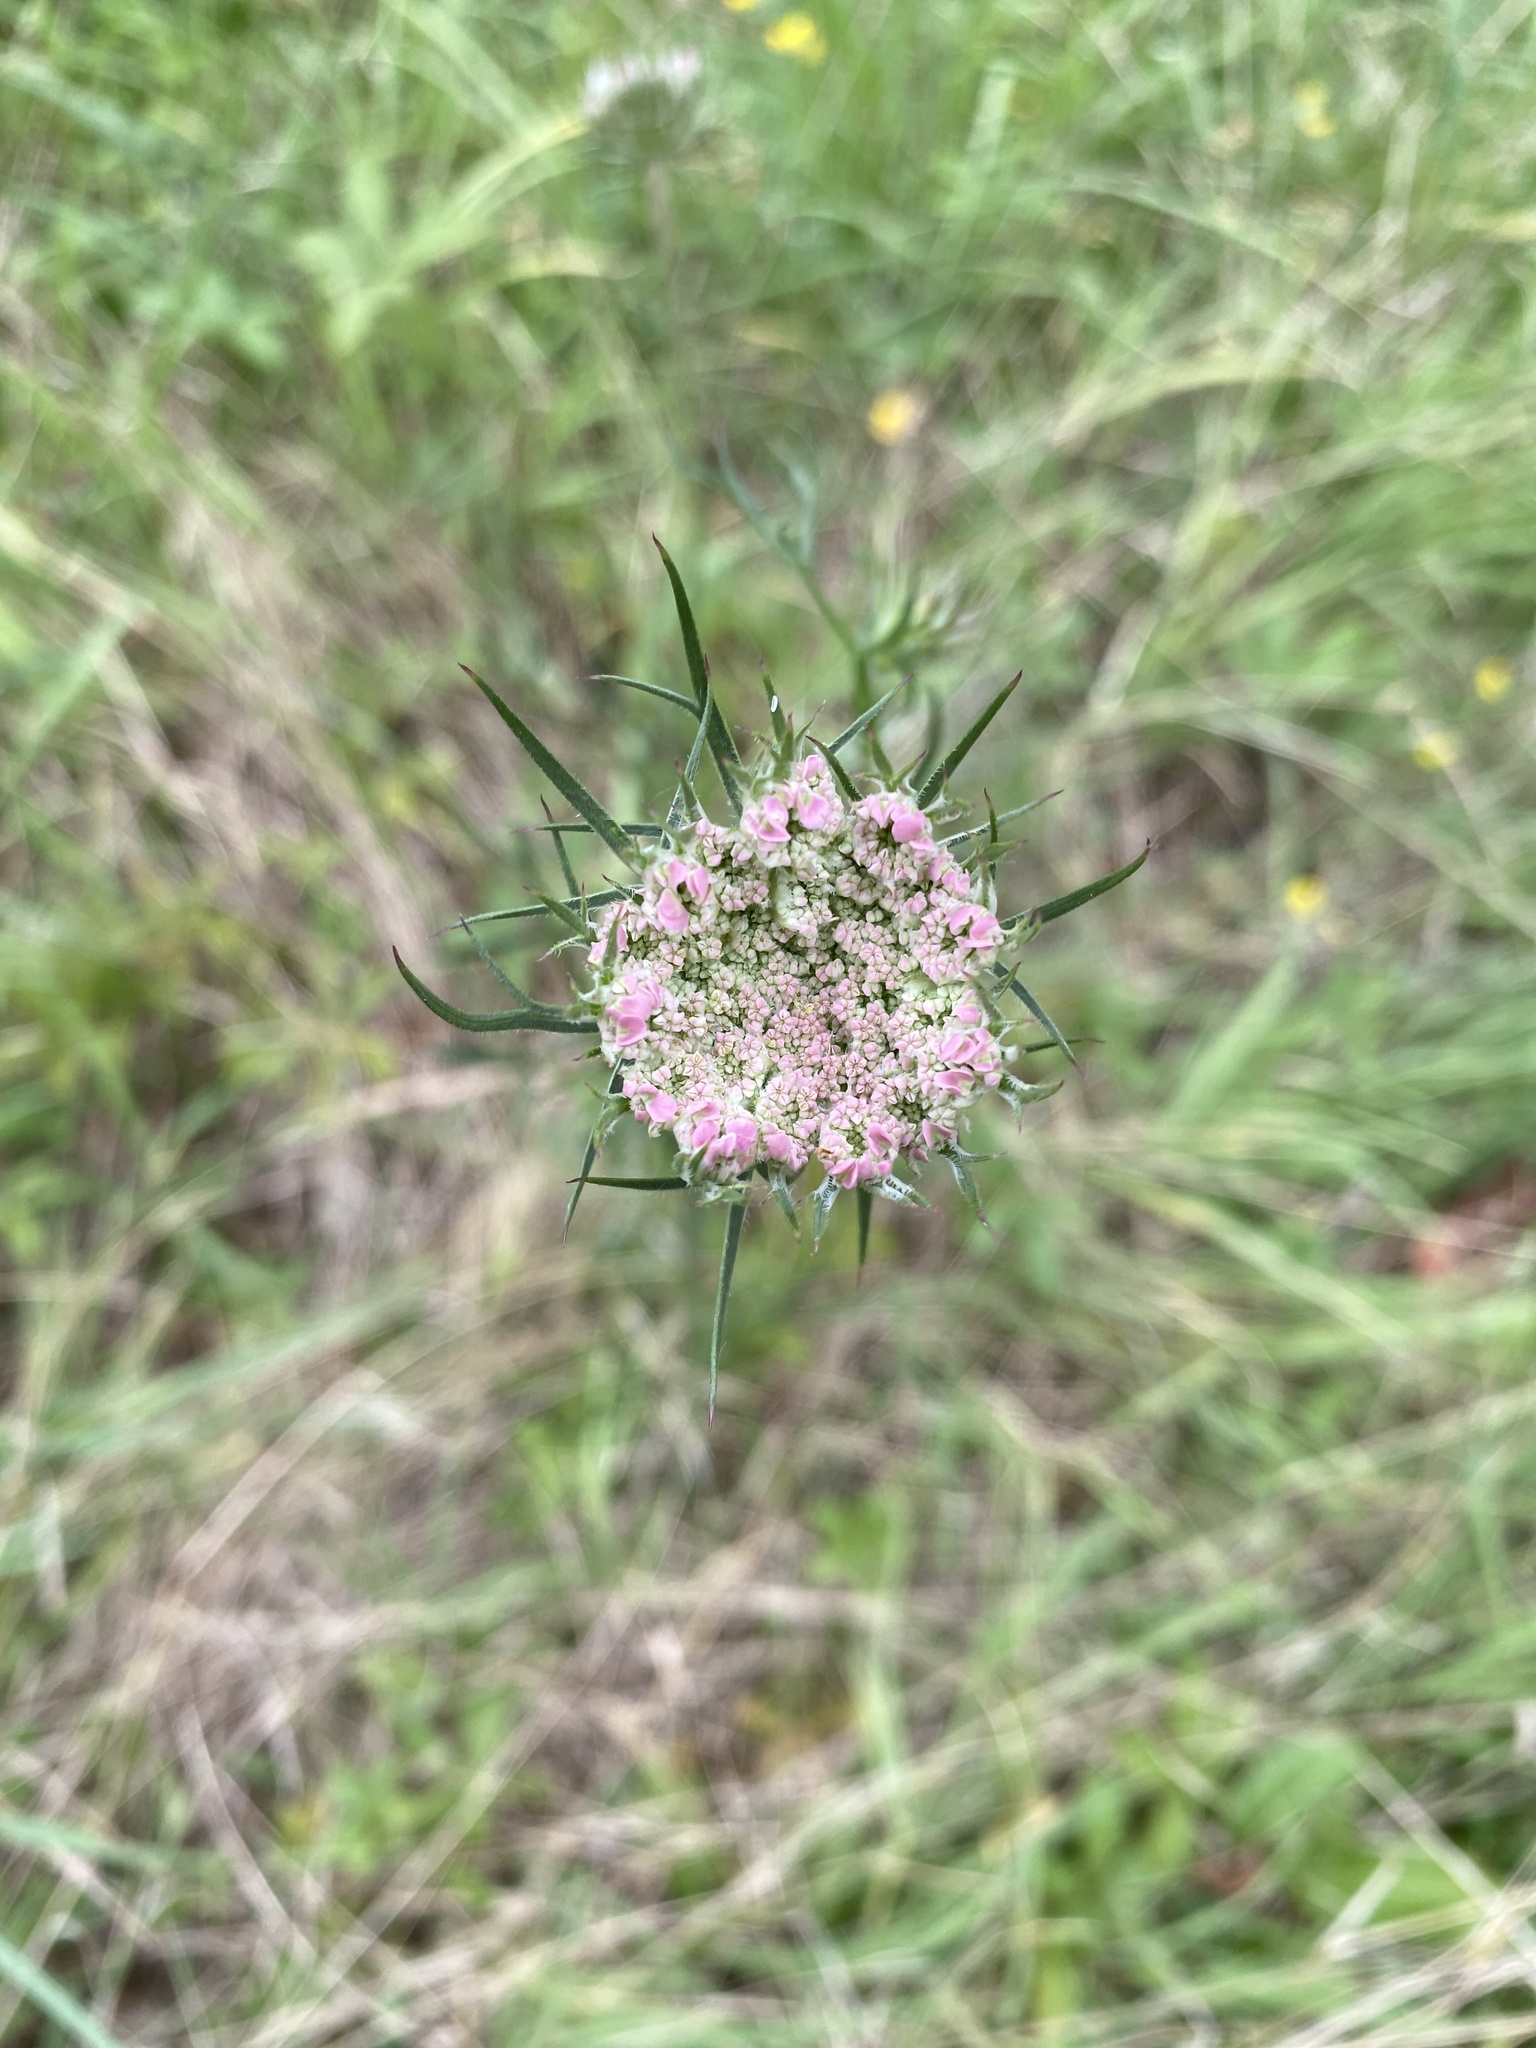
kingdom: Plantae
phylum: Tracheophyta
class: Magnoliopsida
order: Apiales
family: Apiaceae
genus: Daucus
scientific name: Daucus carota
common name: Wild carrot
